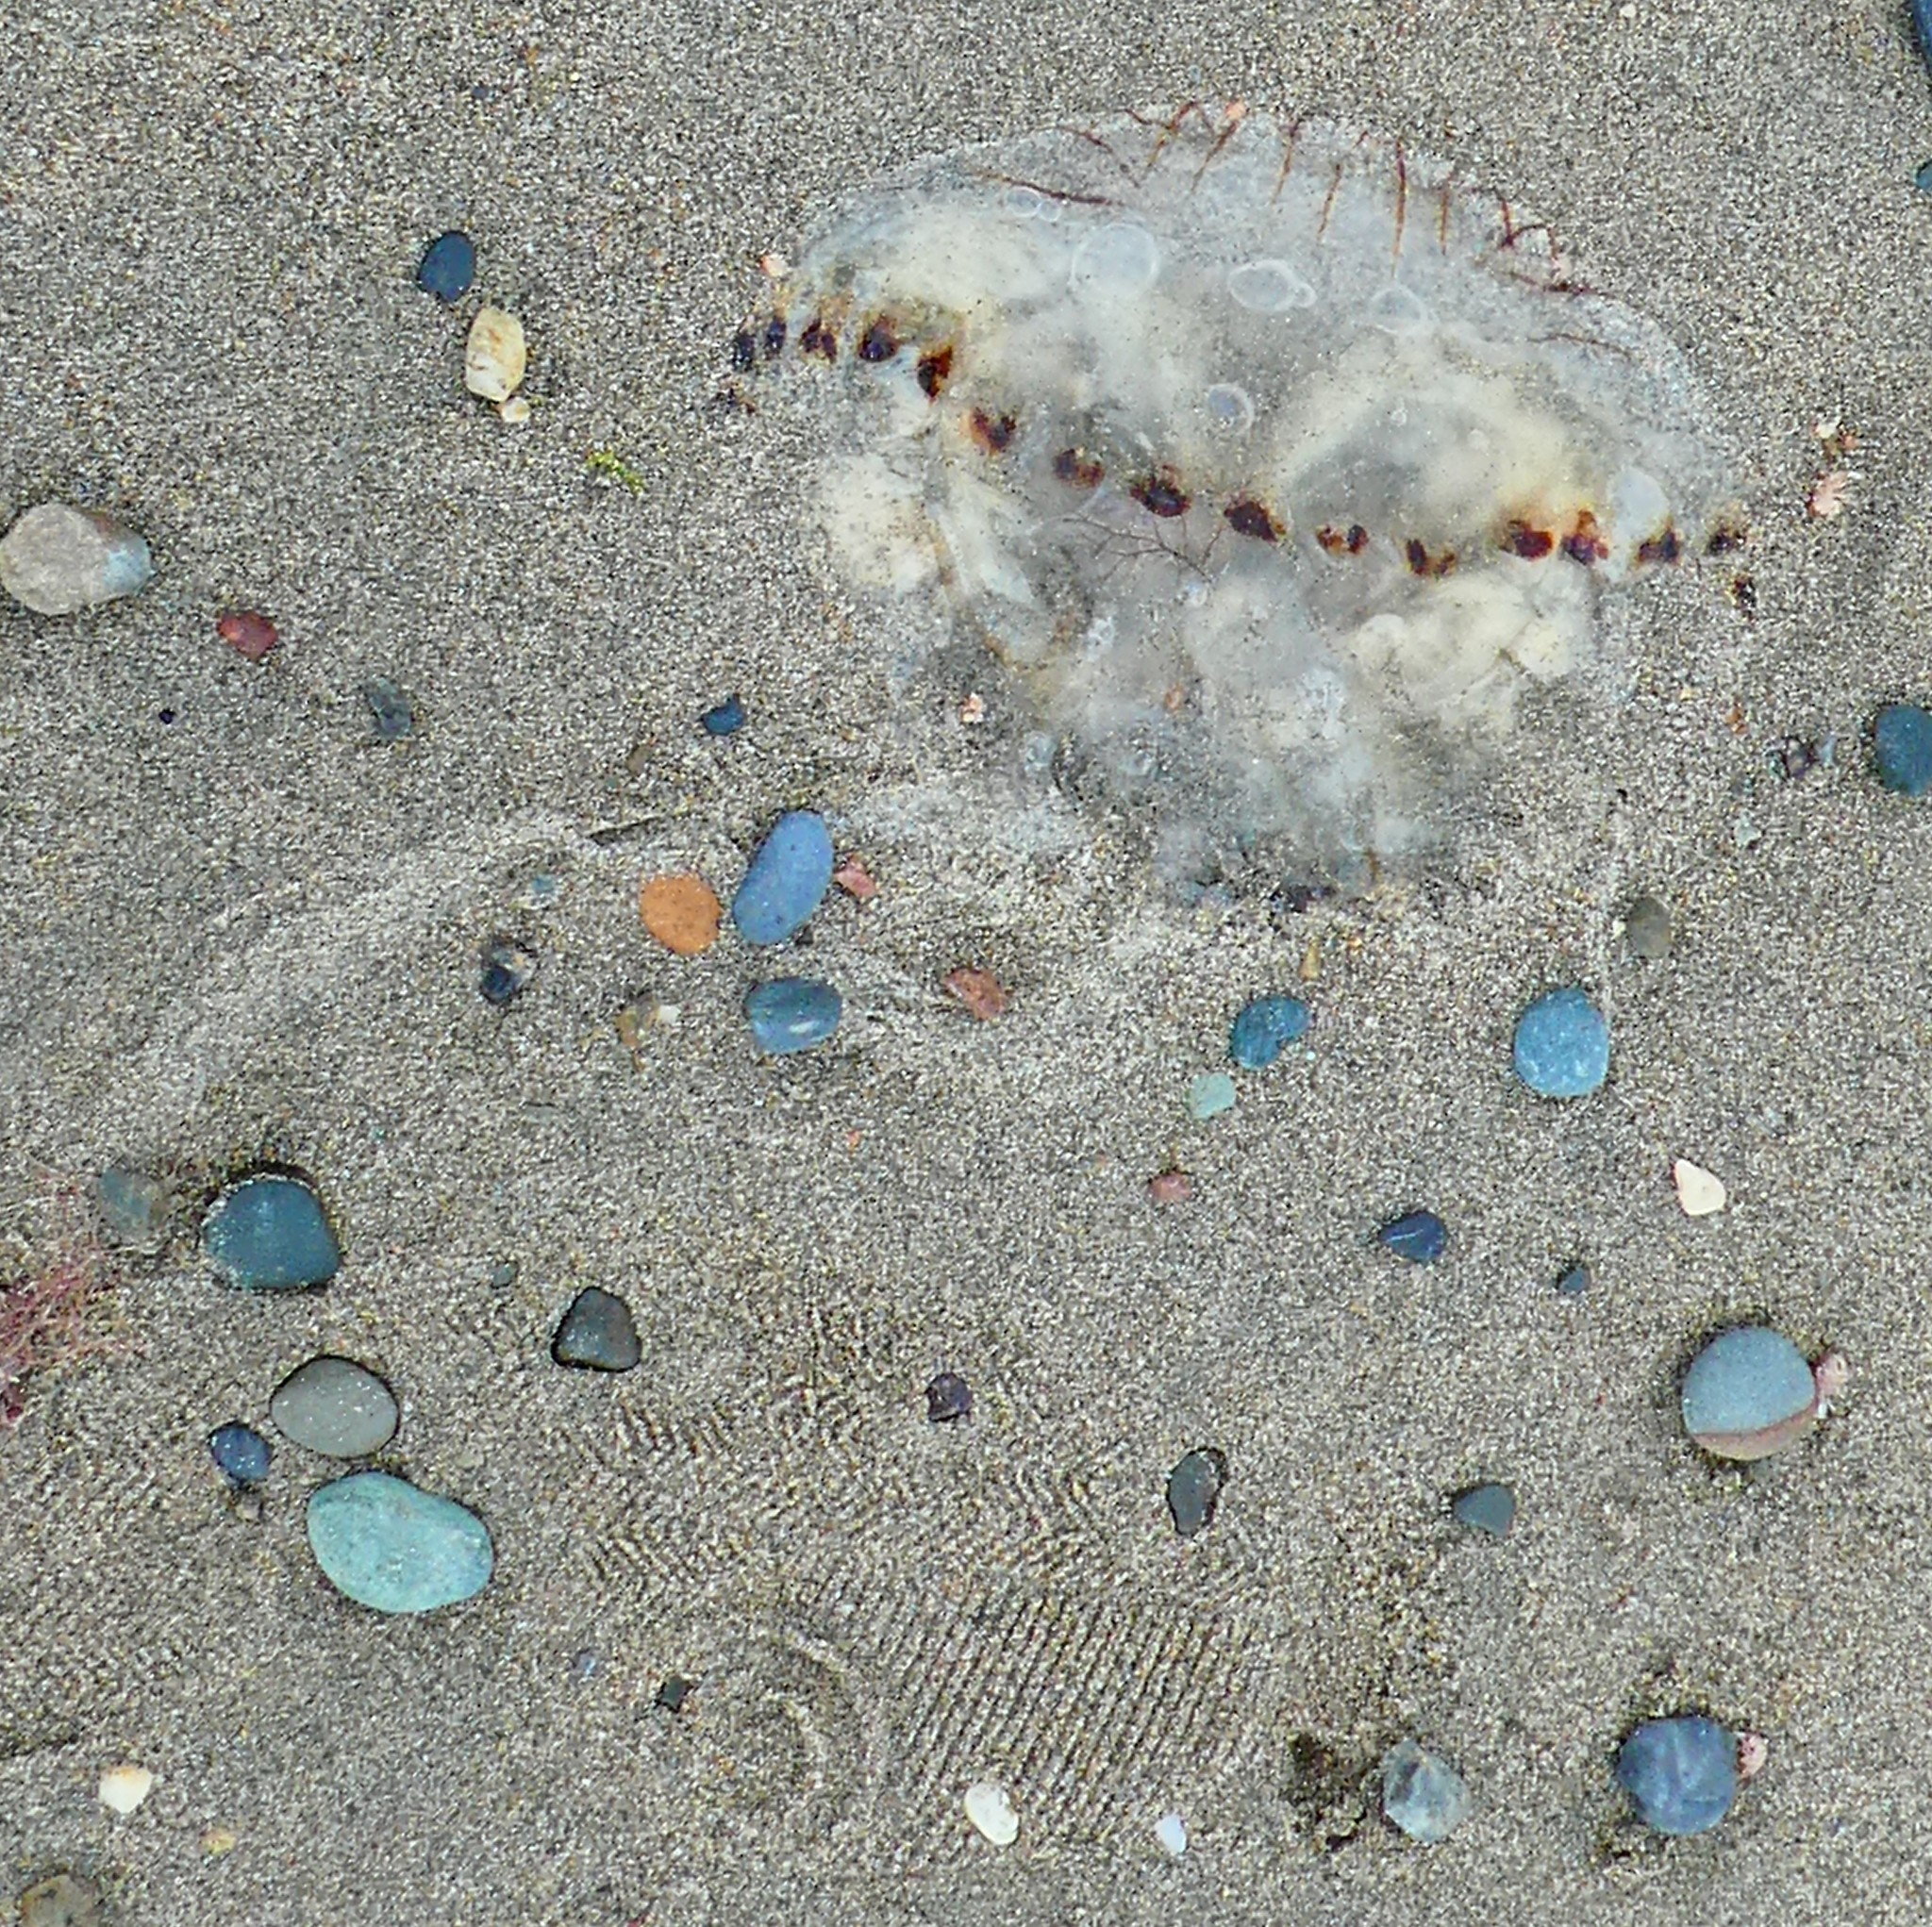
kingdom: Animalia
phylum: Cnidaria
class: Scyphozoa
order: Semaeostomeae
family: Pelagiidae
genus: Chrysaora
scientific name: Chrysaora hysoscella
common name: Compass jellyfish
